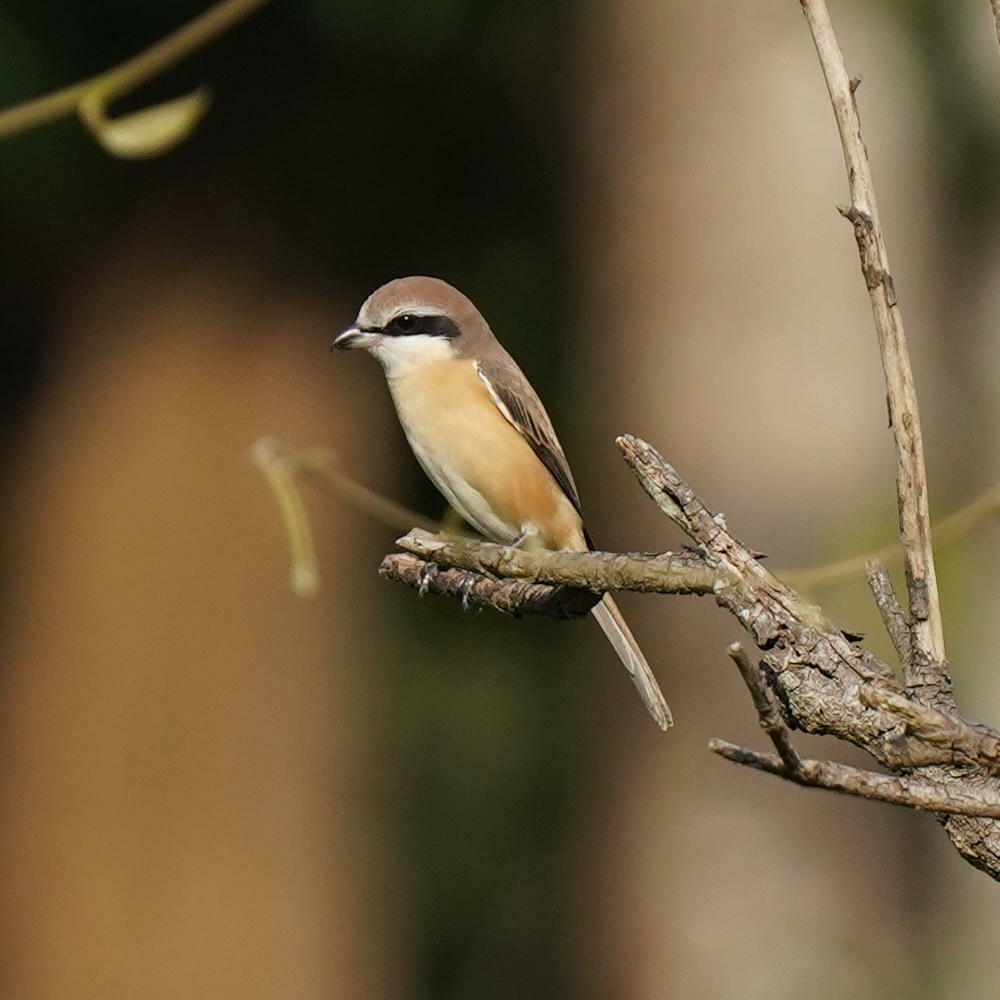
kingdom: Animalia
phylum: Chordata
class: Aves
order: Passeriformes
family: Laniidae
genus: Lanius
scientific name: Lanius cristatus
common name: Brown shrike
